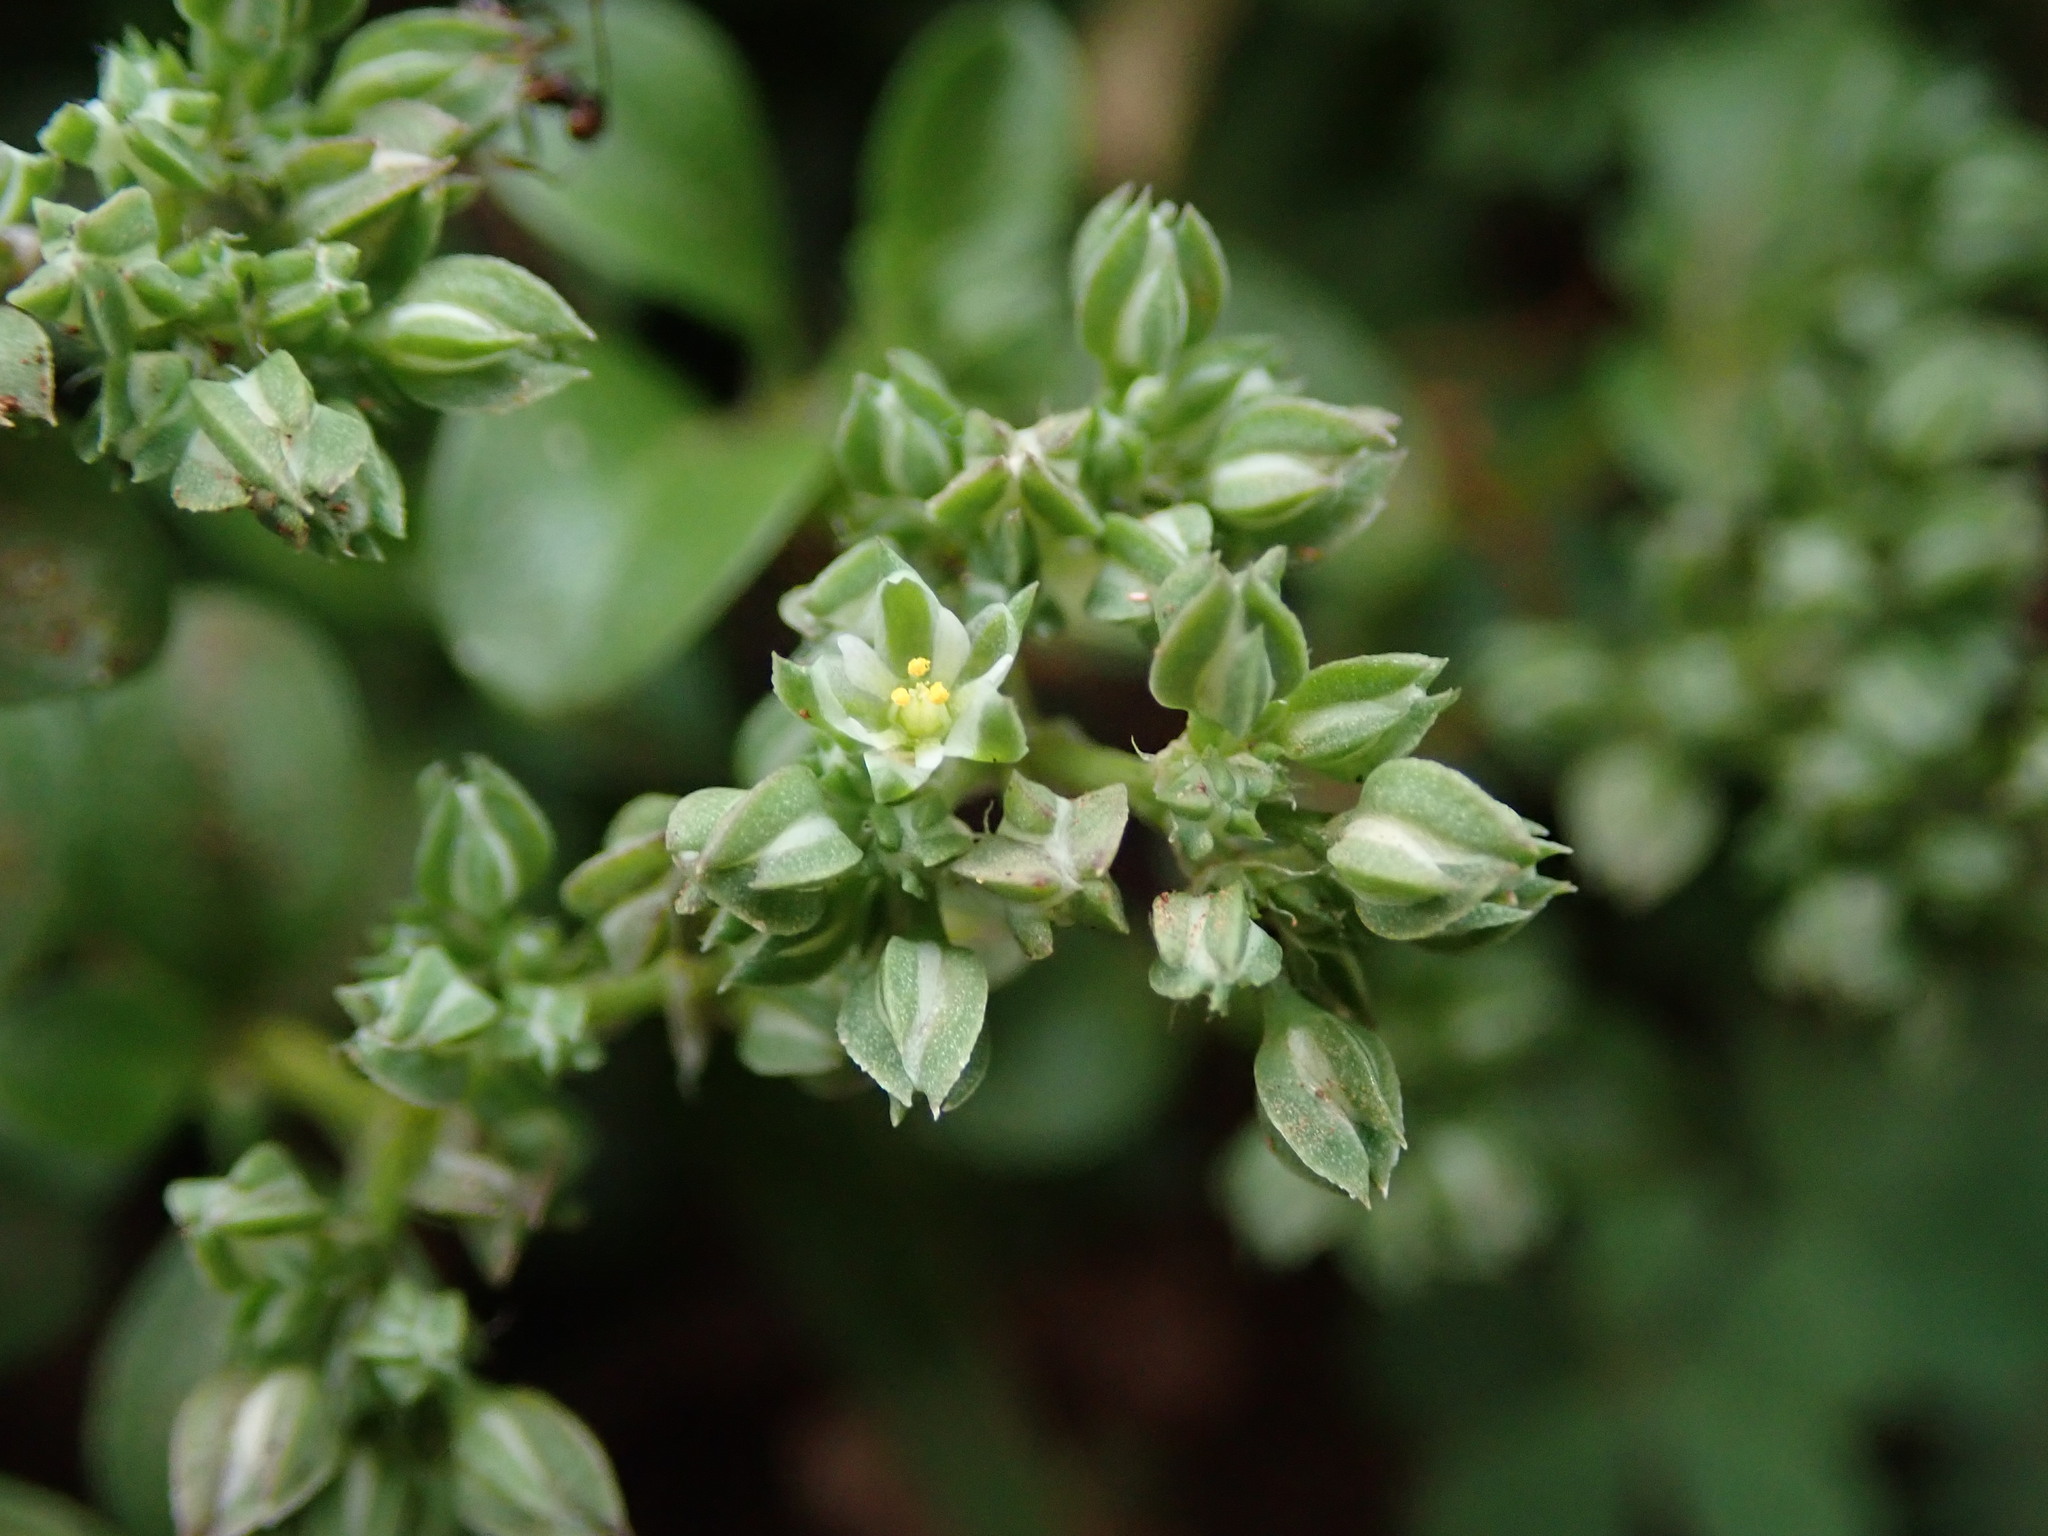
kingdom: Plantae
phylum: Tracheophyta
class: Magnoliopsida
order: Caryophyllales
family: Caryophyllaceae
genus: Polycarpon
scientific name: Polycarpon tetraphyllum
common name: Four-leaved all-seed
